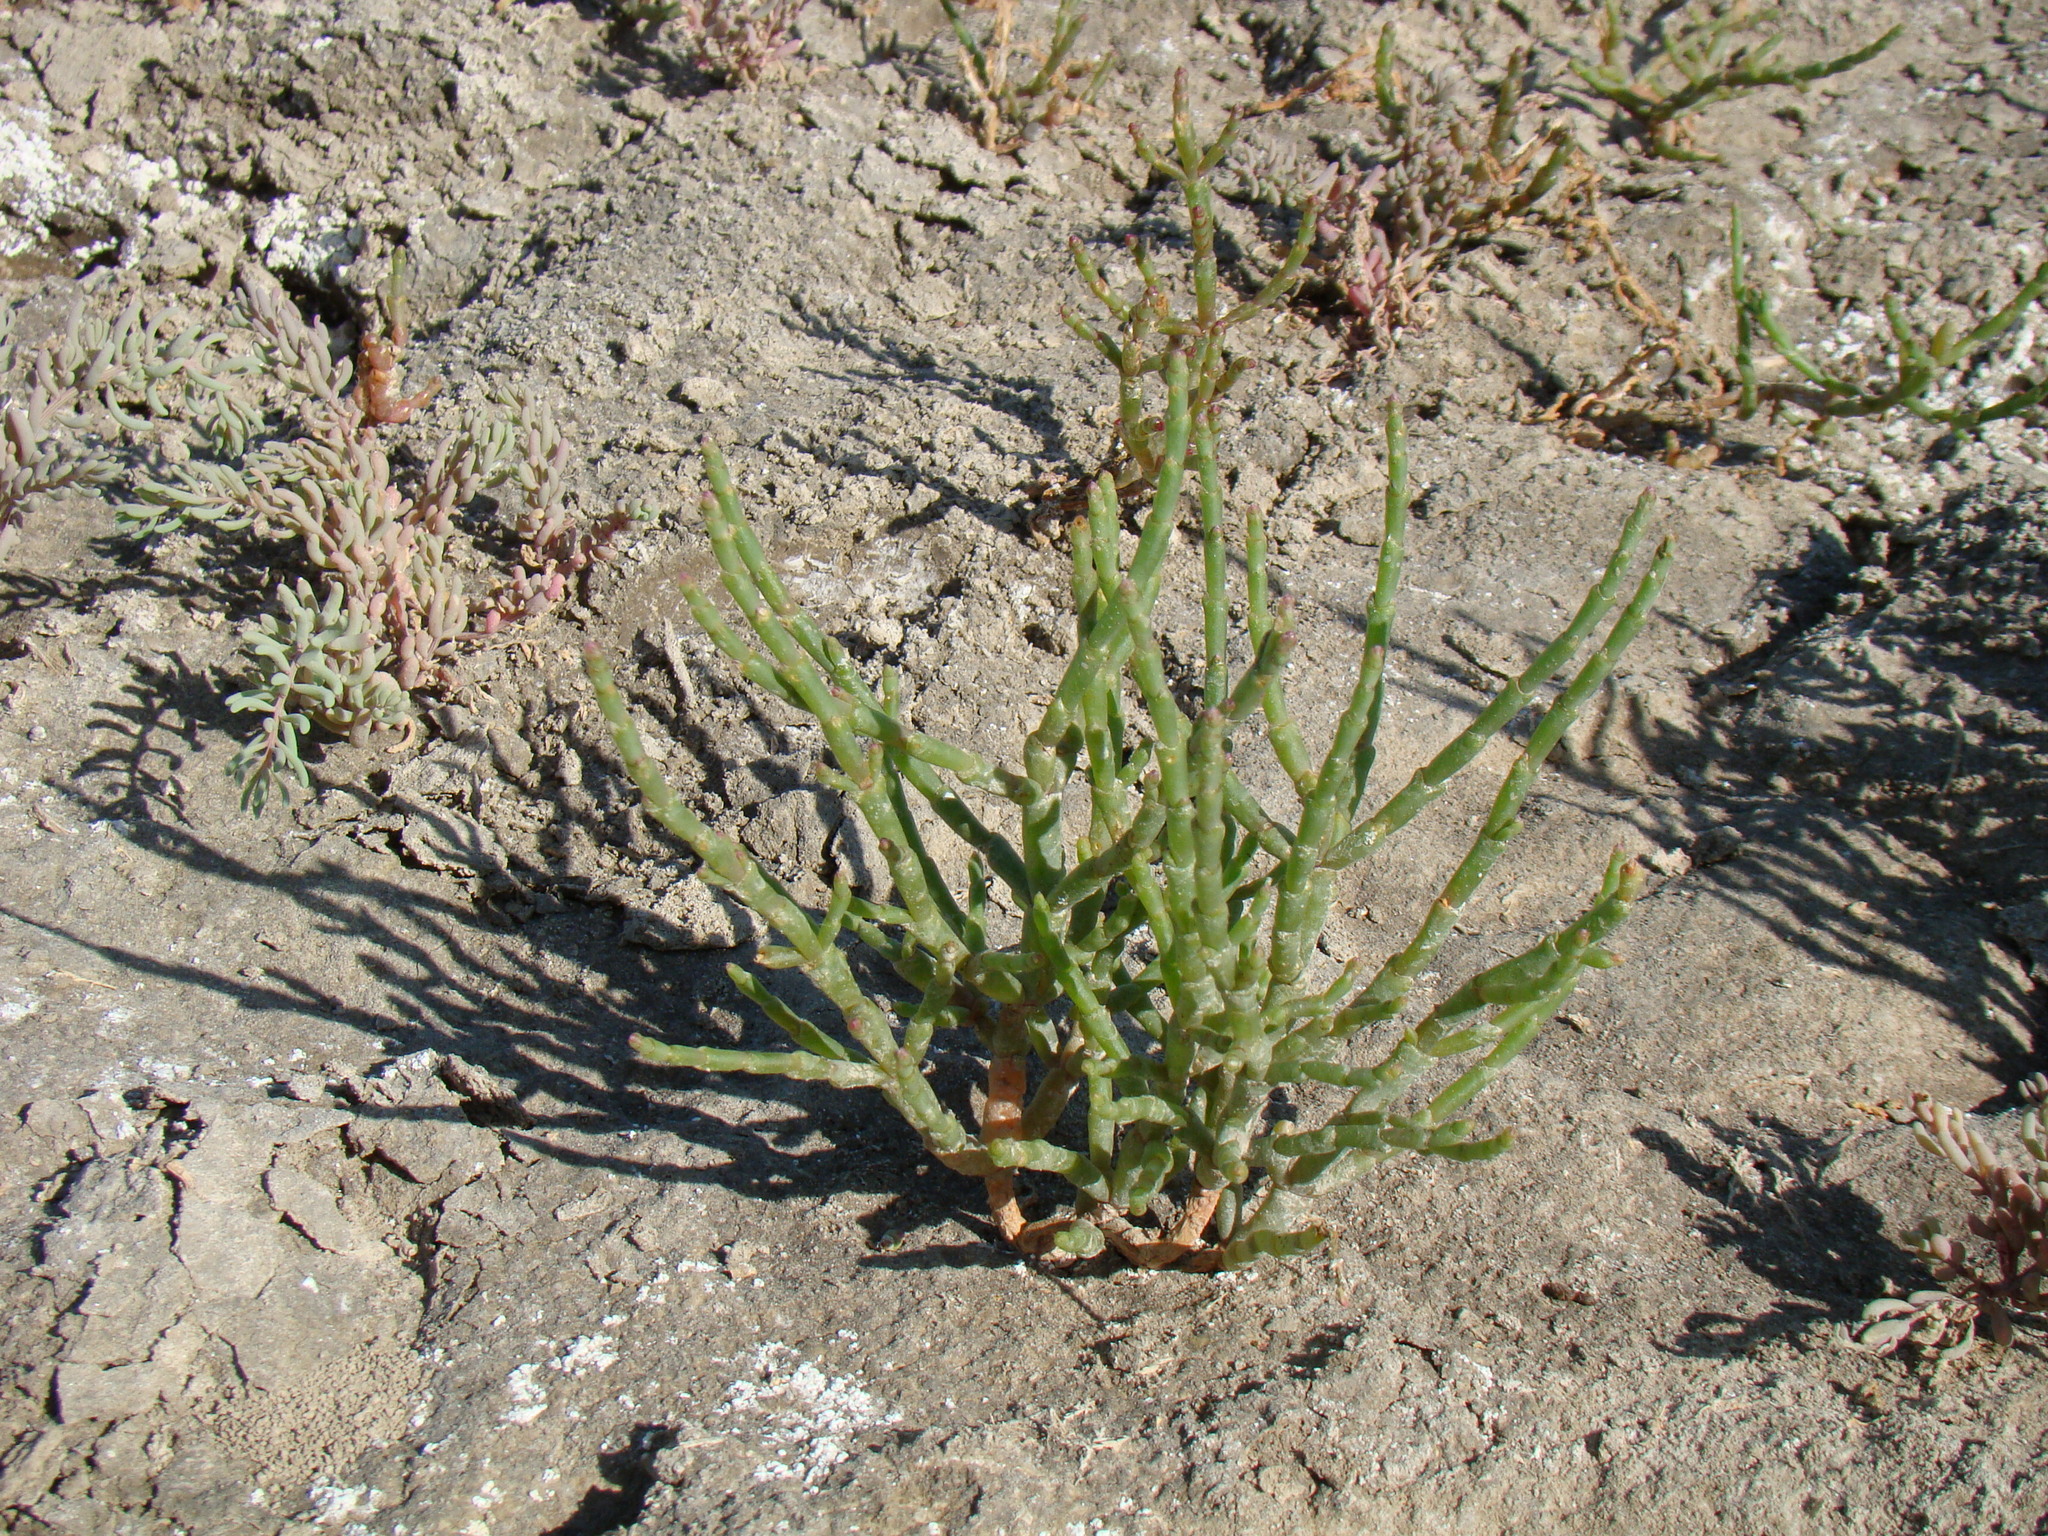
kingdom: Plantae
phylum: Tracheophyta
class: Magnoliopsida
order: Caryophyllales
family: Amaranthaceae
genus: Salicornia
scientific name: Salicornia perennans
